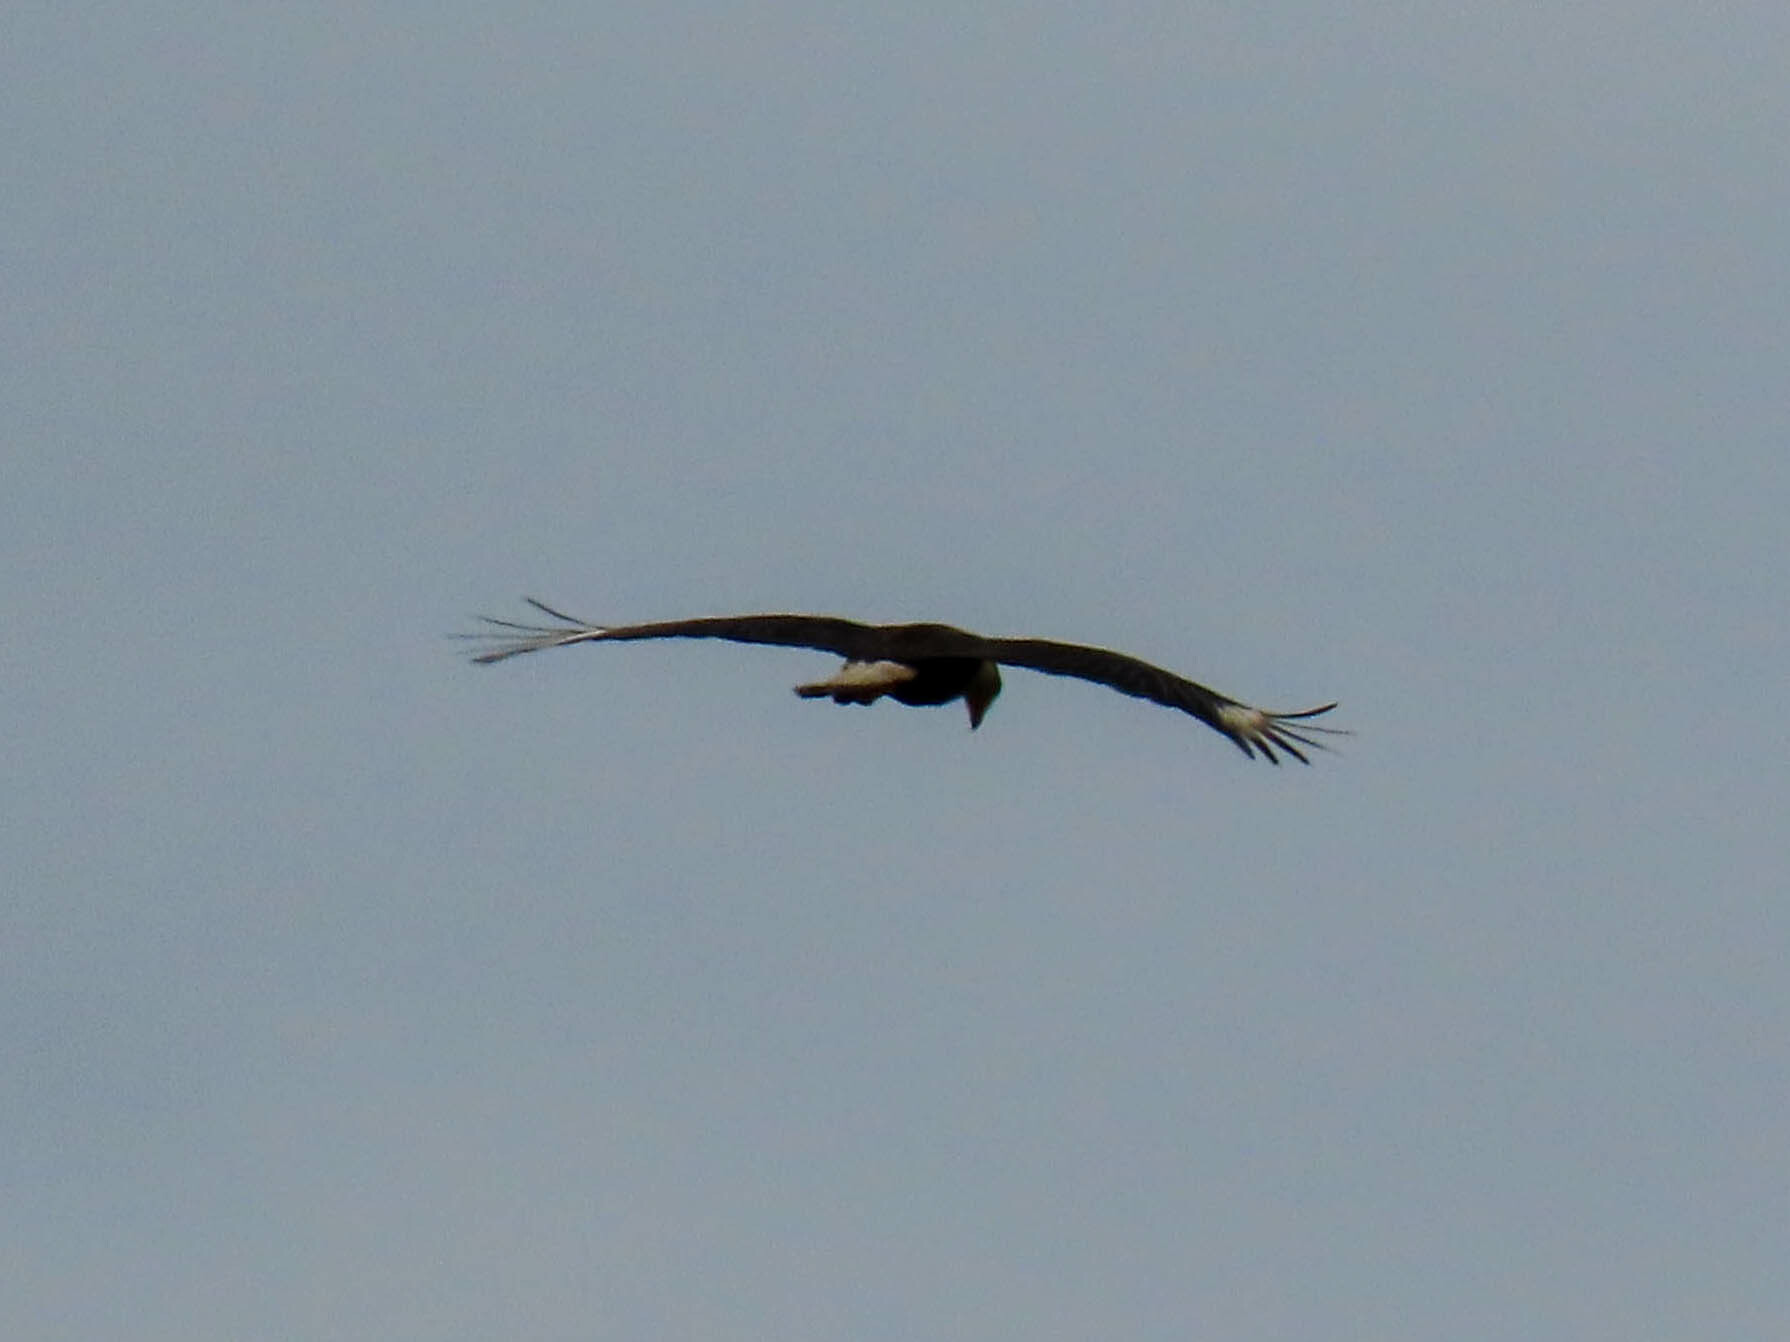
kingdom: Animalia
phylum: Chordata
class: Aves
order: Falconiformes
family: Falconidae
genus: Caracara
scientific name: Caracara plancus
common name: Southern caracara
